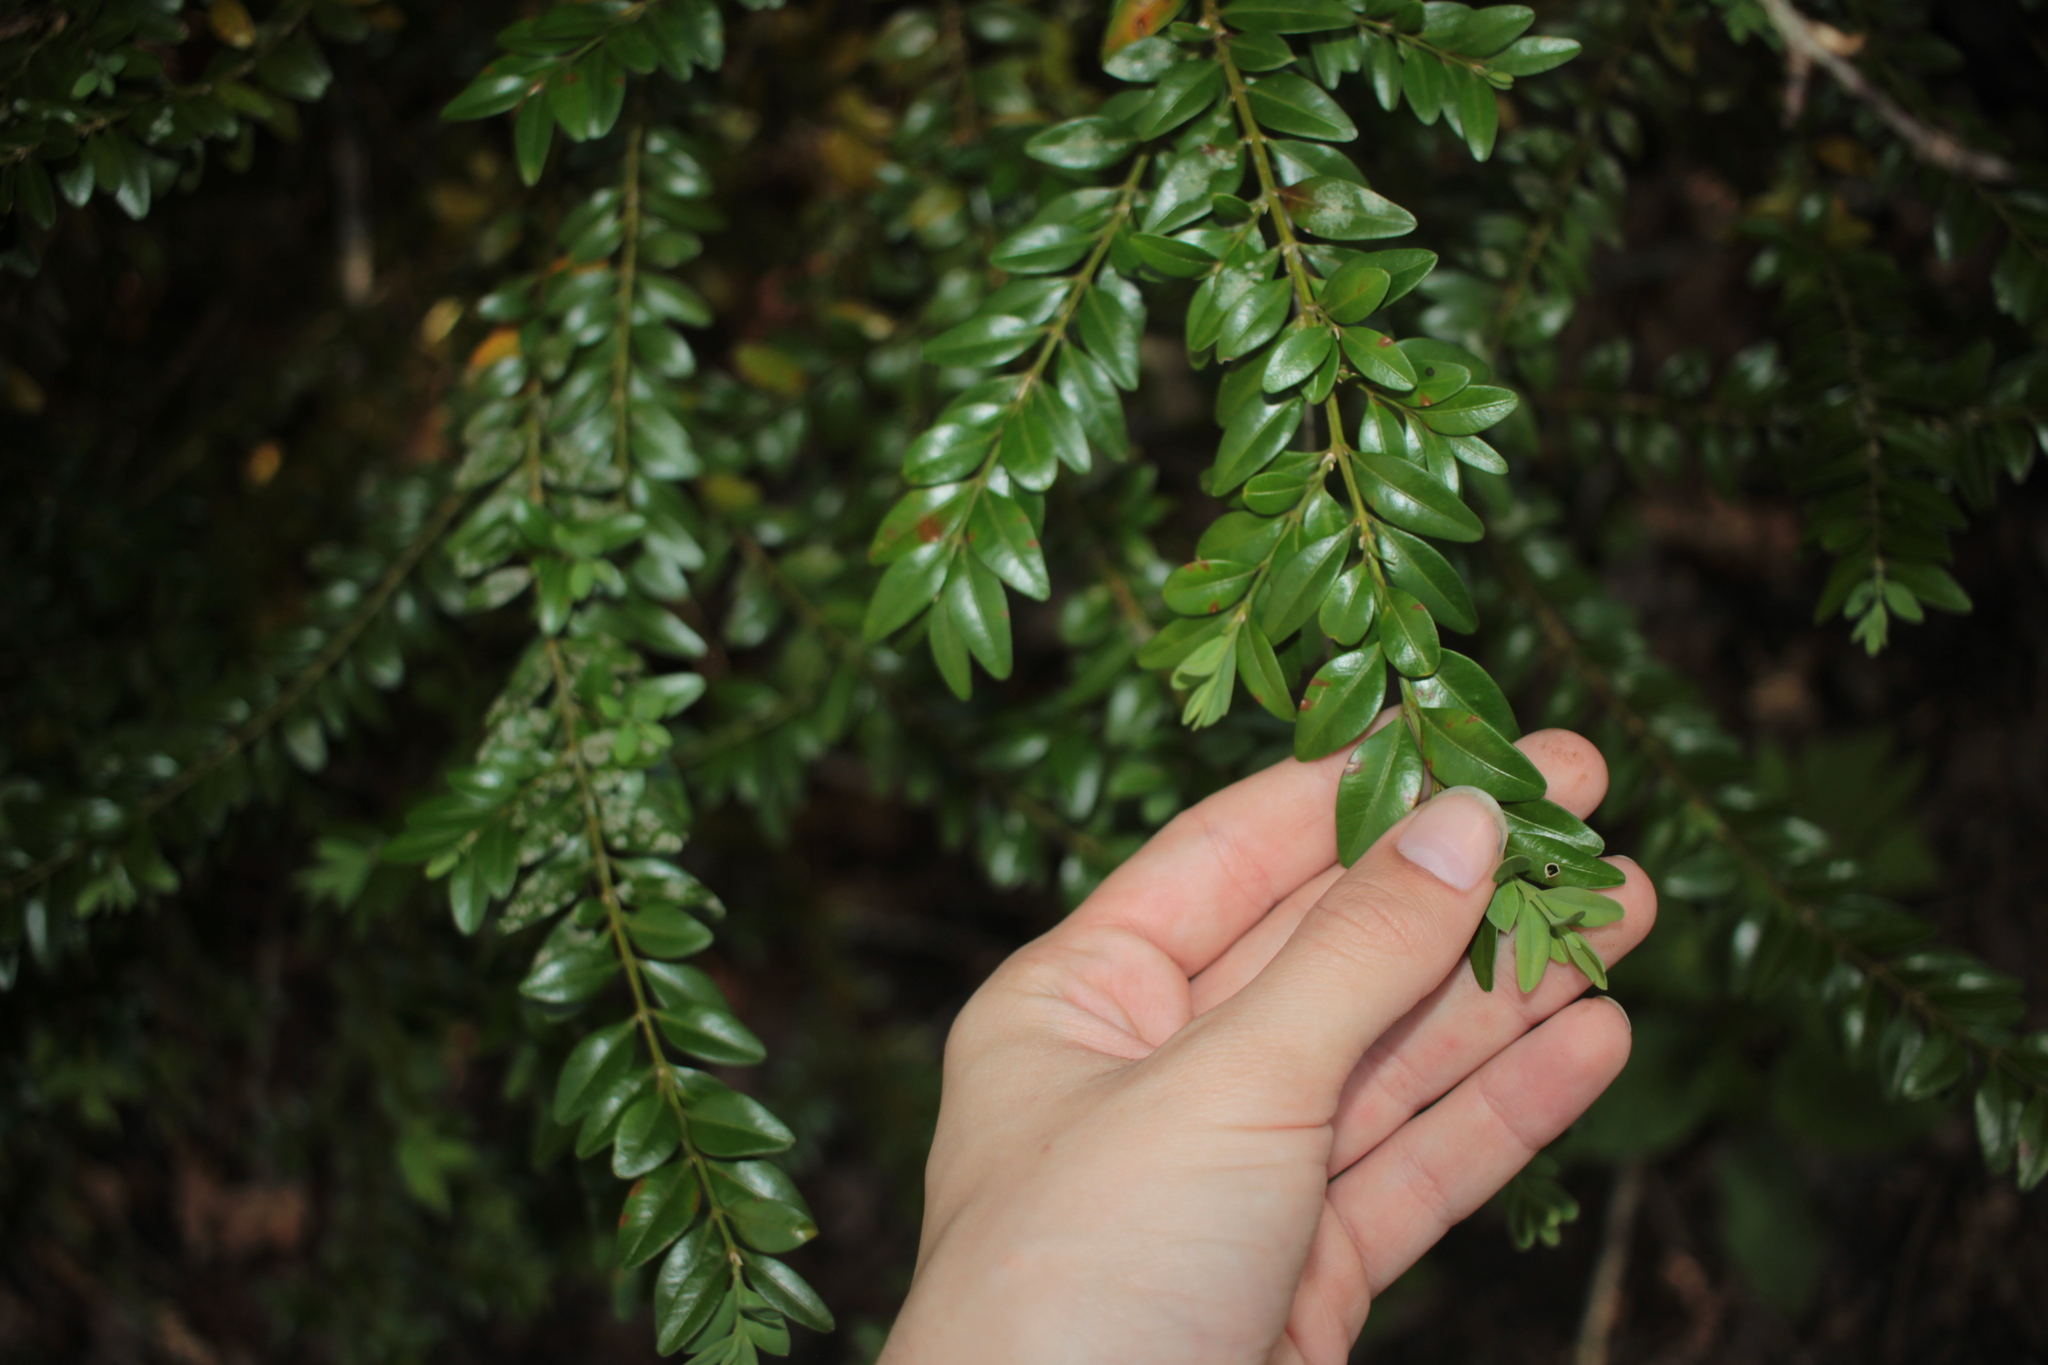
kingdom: Plantae
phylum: Tracheophyta
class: Magnoliopsida
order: Buxales
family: Buxaceae
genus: Buxus
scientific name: Buxus sempervirens
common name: Box
